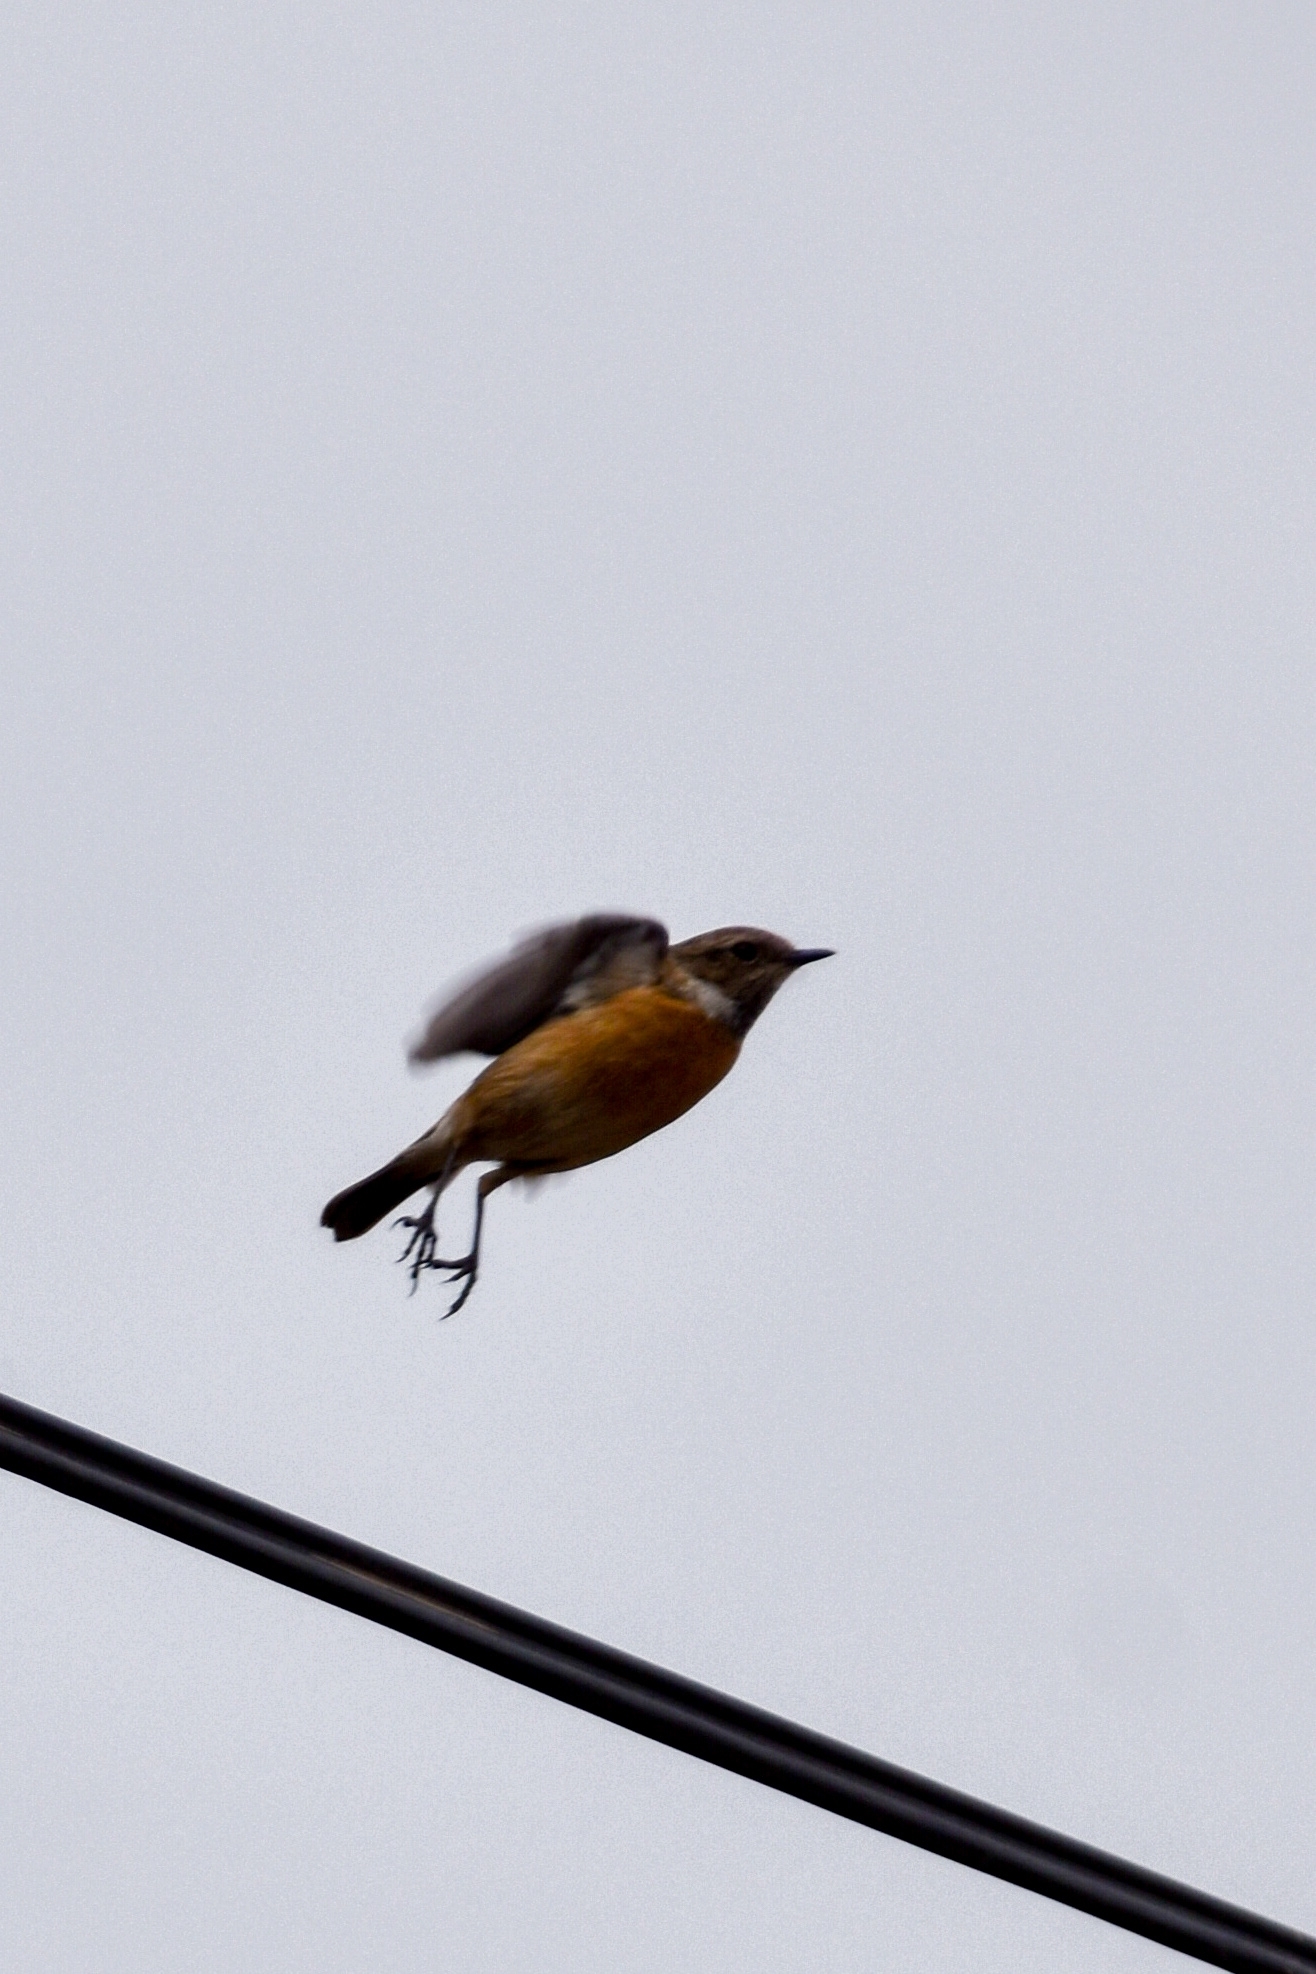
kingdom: Animalia
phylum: Chordata
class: Aves
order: Passeriformes
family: Muscicapidae
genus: Saxicola
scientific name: Saxicola rubicola
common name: European stonechat
